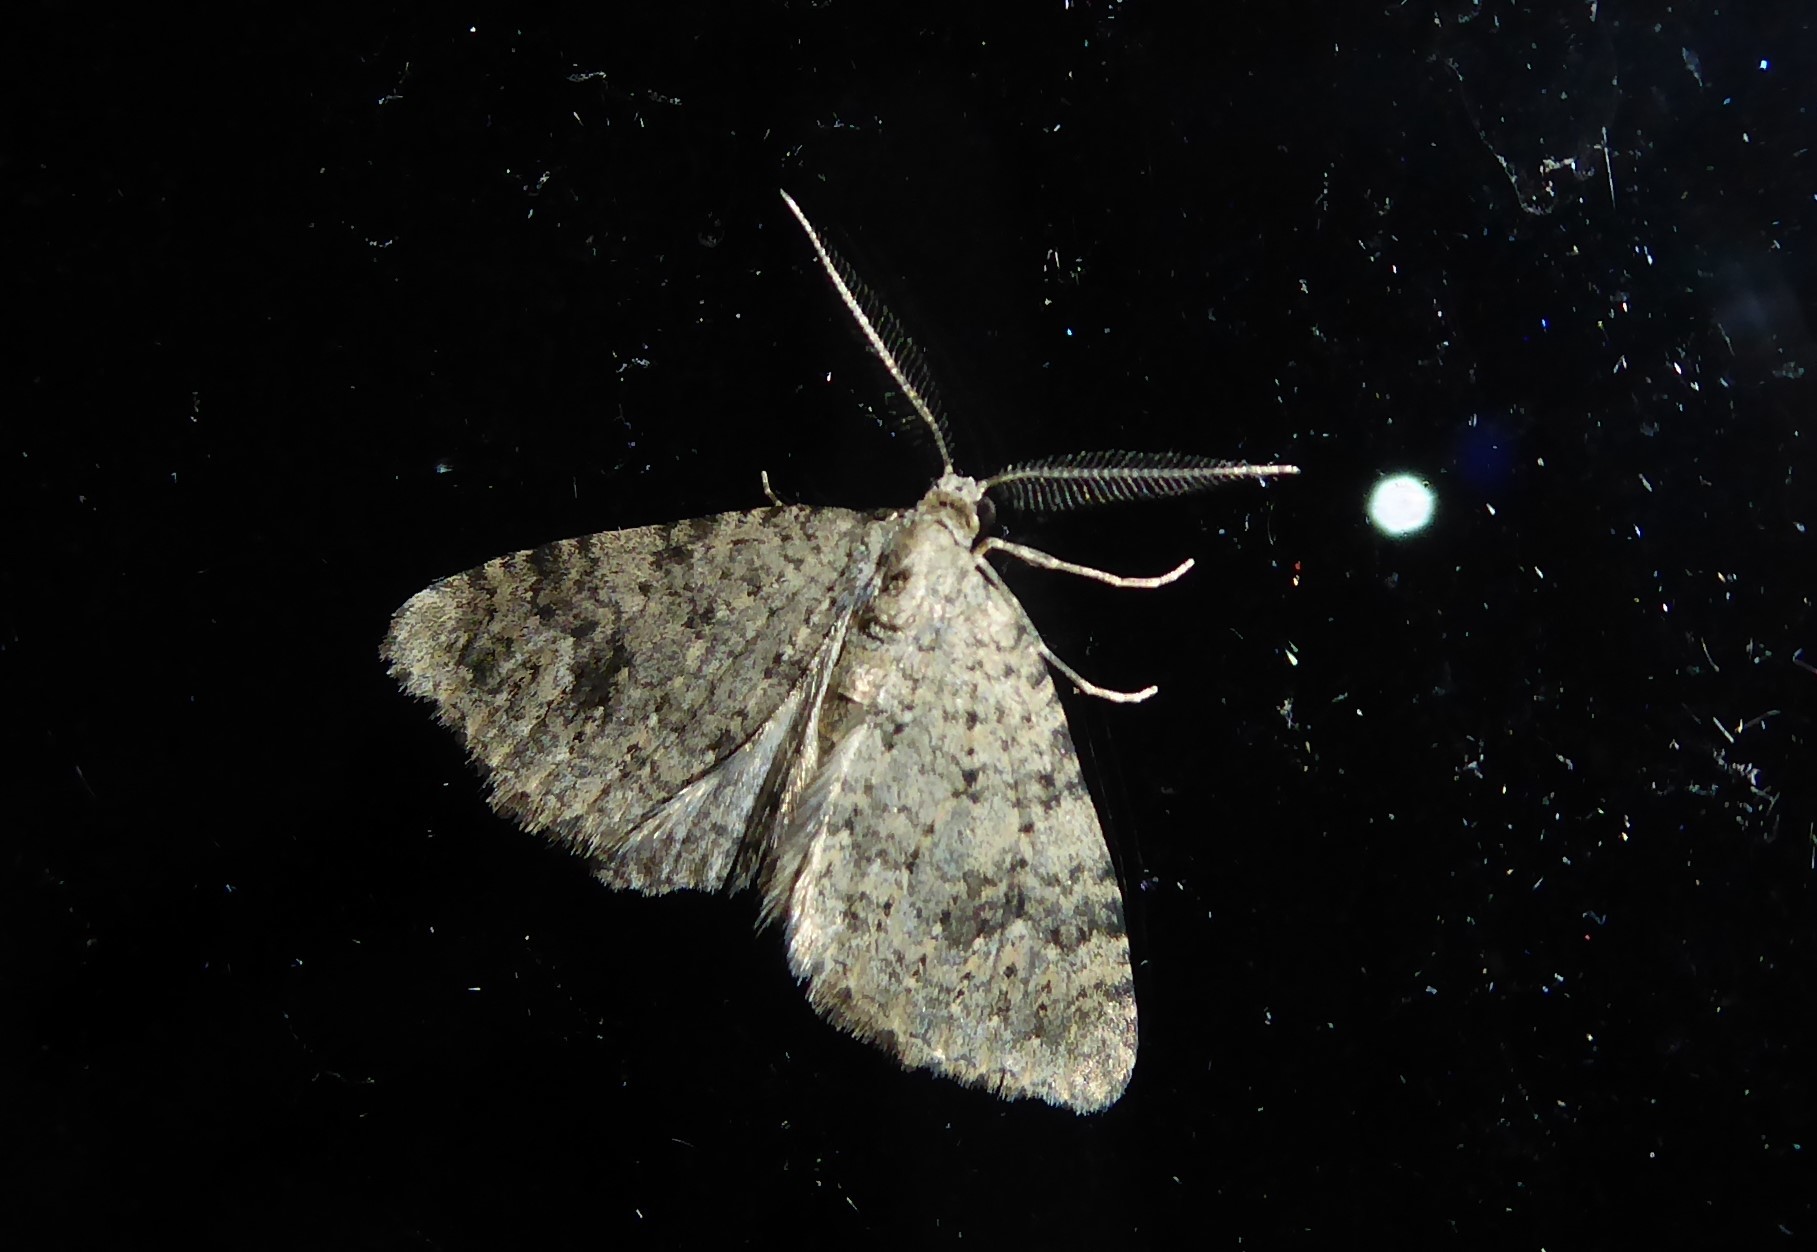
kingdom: Animalia
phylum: Arthropoda
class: Insecta
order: Lepidoptera
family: Geometridae
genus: Helastia
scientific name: Helastia cinerearia
